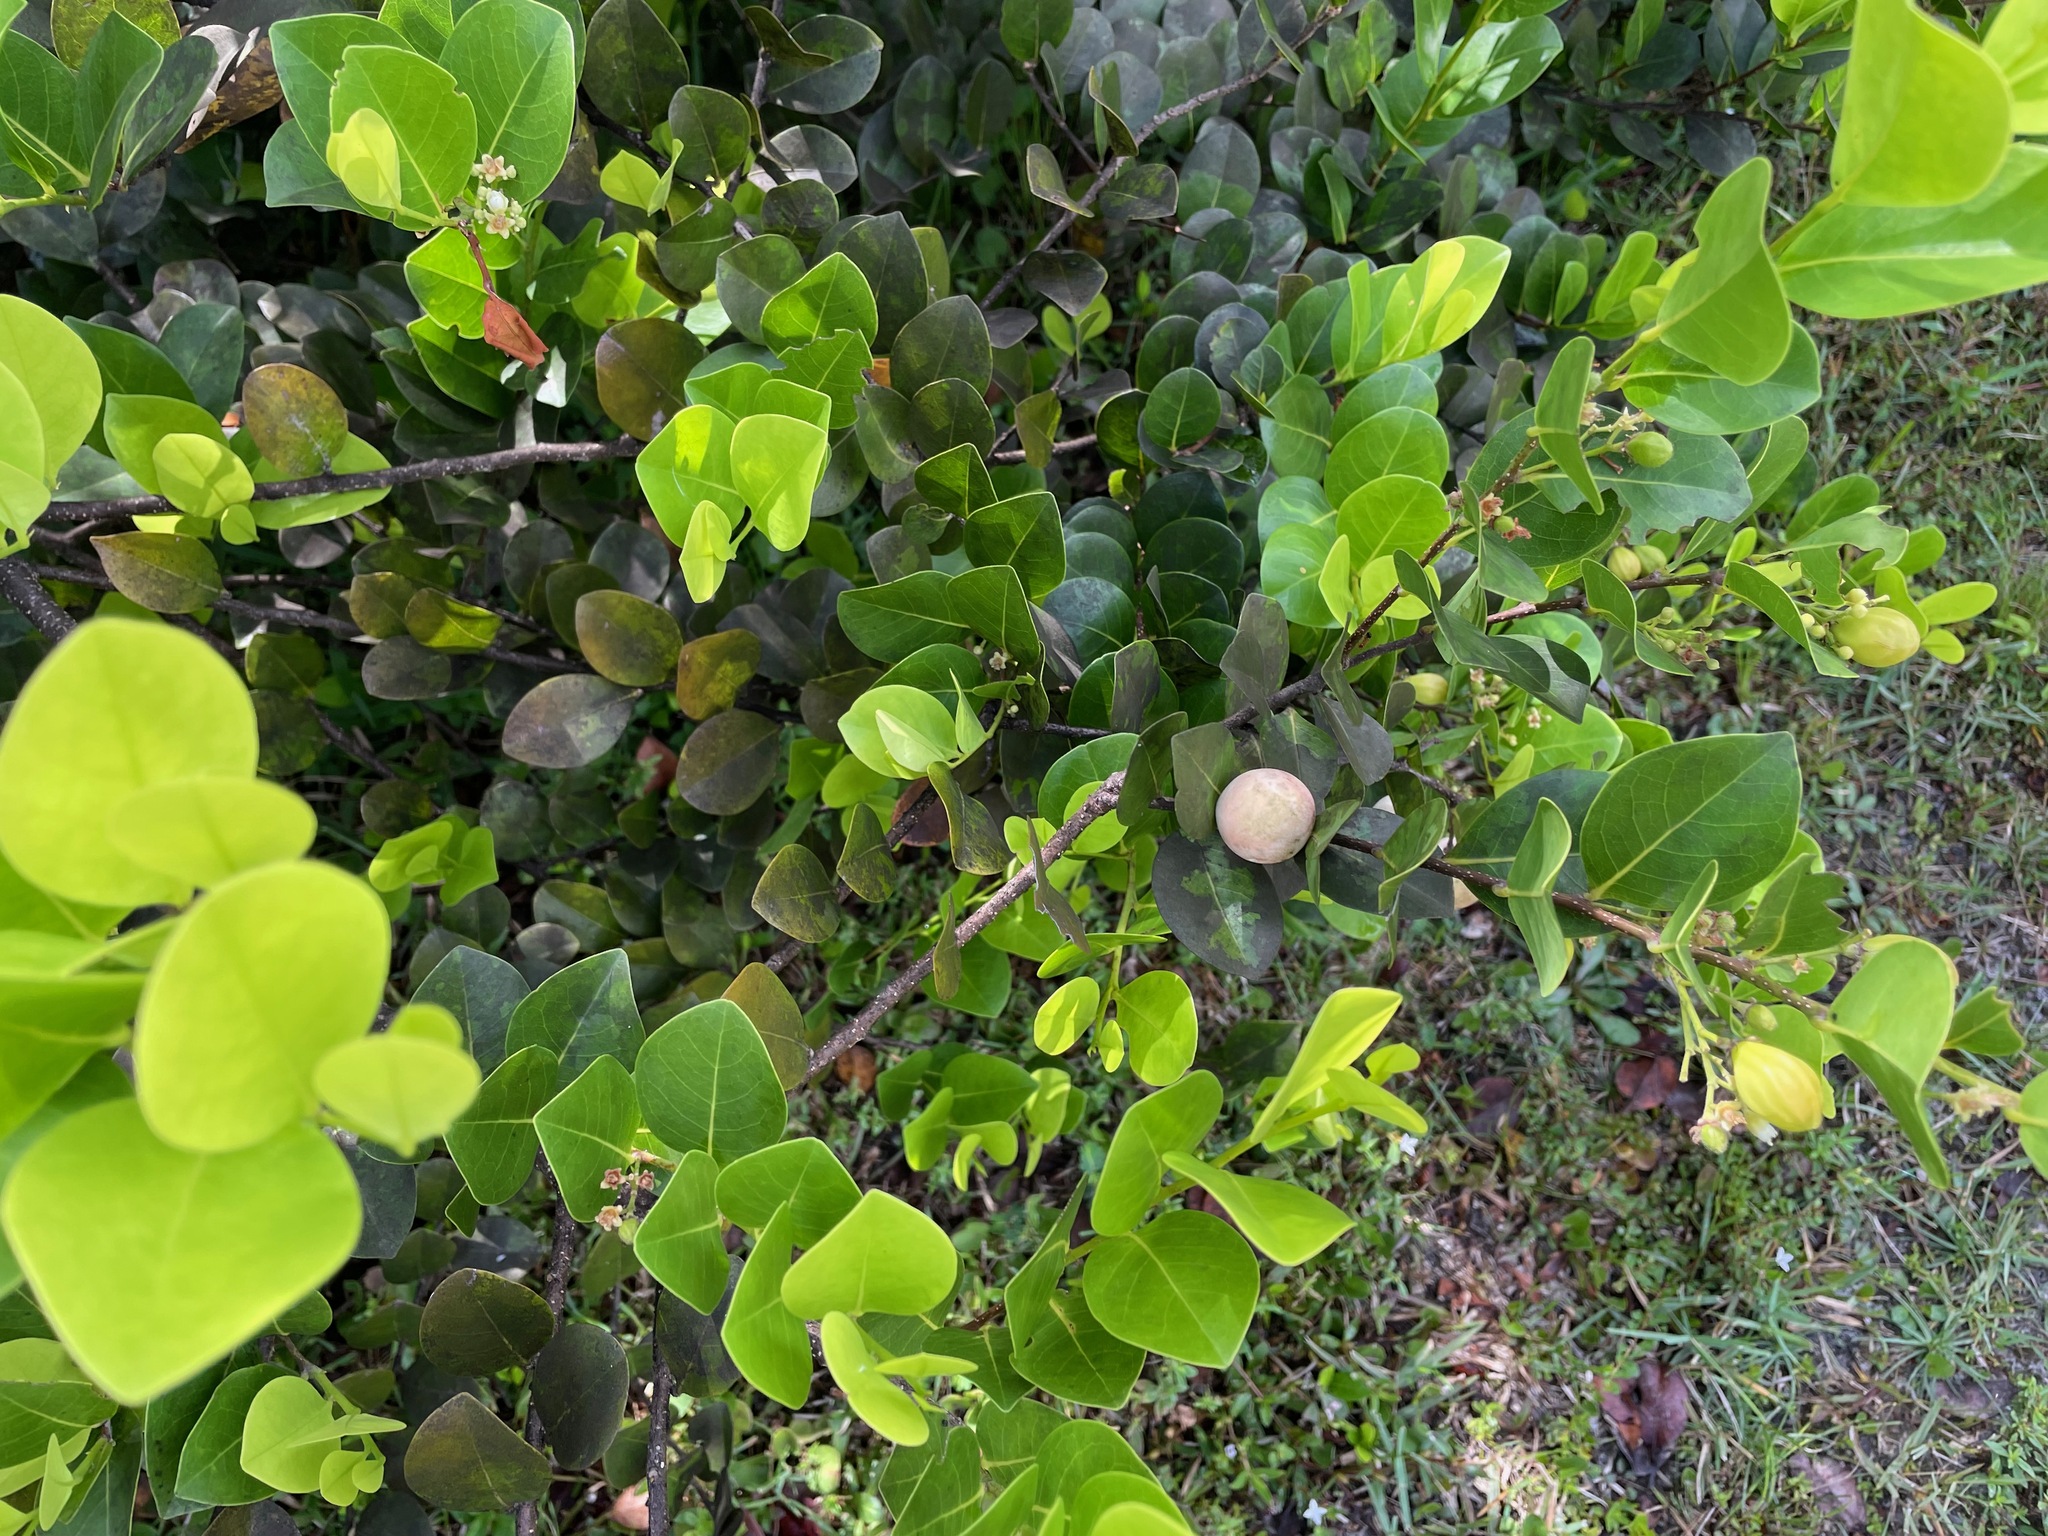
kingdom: Plantae
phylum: Tracheophyta
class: Magnoliopsida
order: Malpighiales
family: Chrysobalanaceae
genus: Chrysobalanus
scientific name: Chrysobalanus icaco
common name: Coco plum
